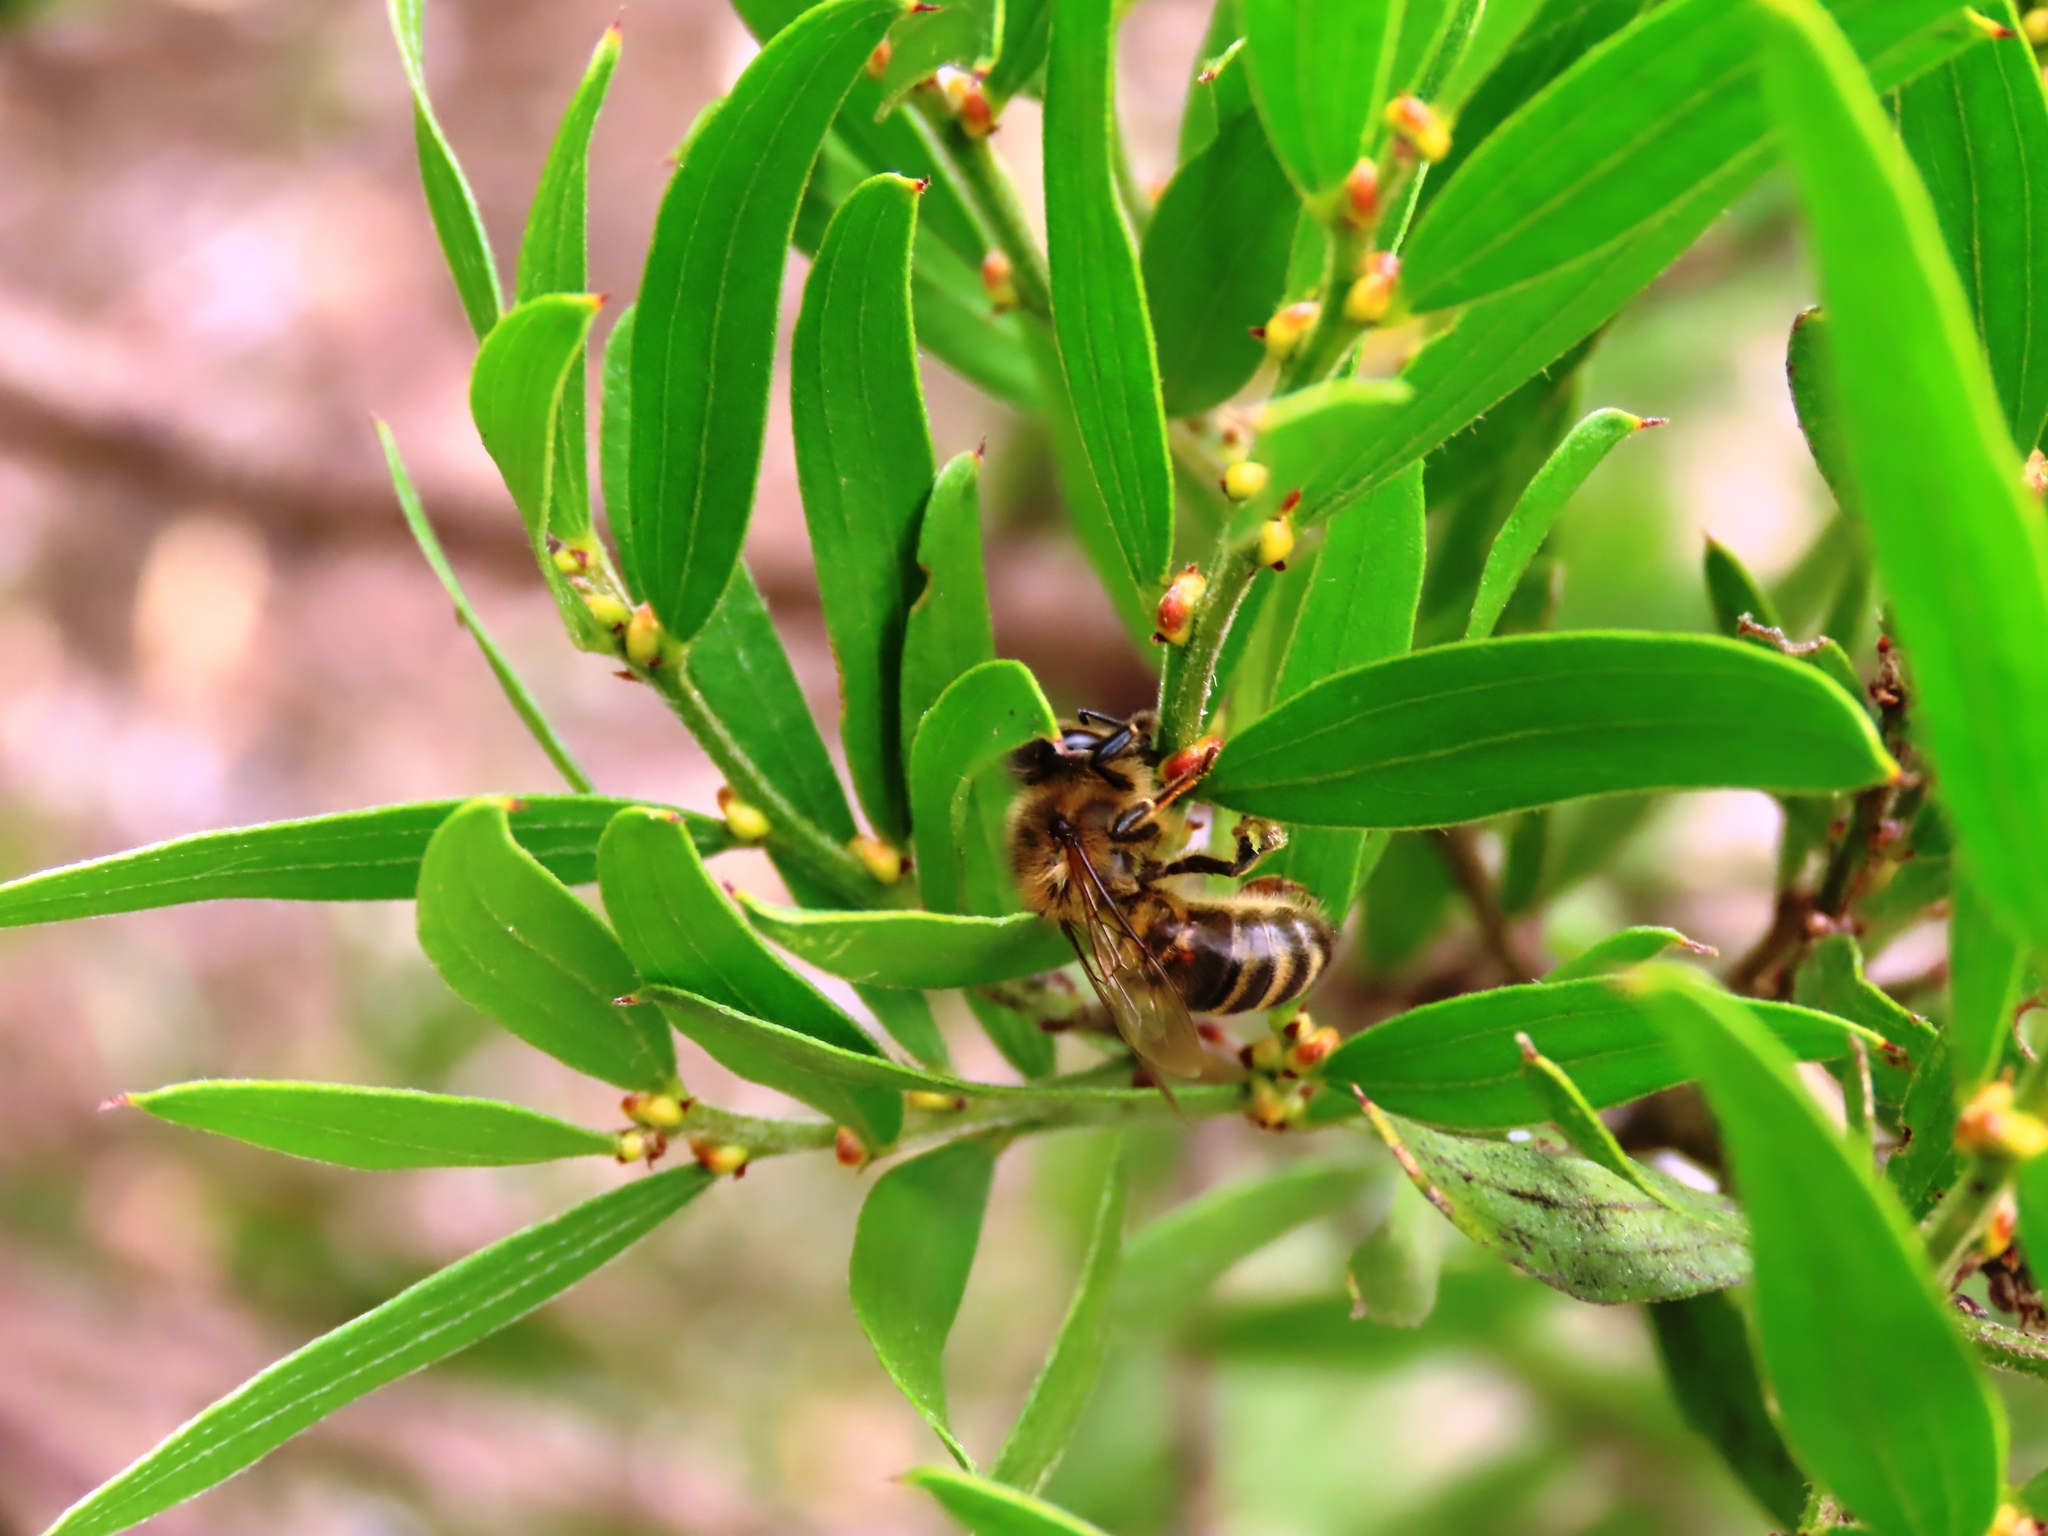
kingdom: Animalia
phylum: Arthropoda
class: Insecta
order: Hymenoptera
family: Apidae
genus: Apis
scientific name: Apis mellifera
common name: Honey bee
